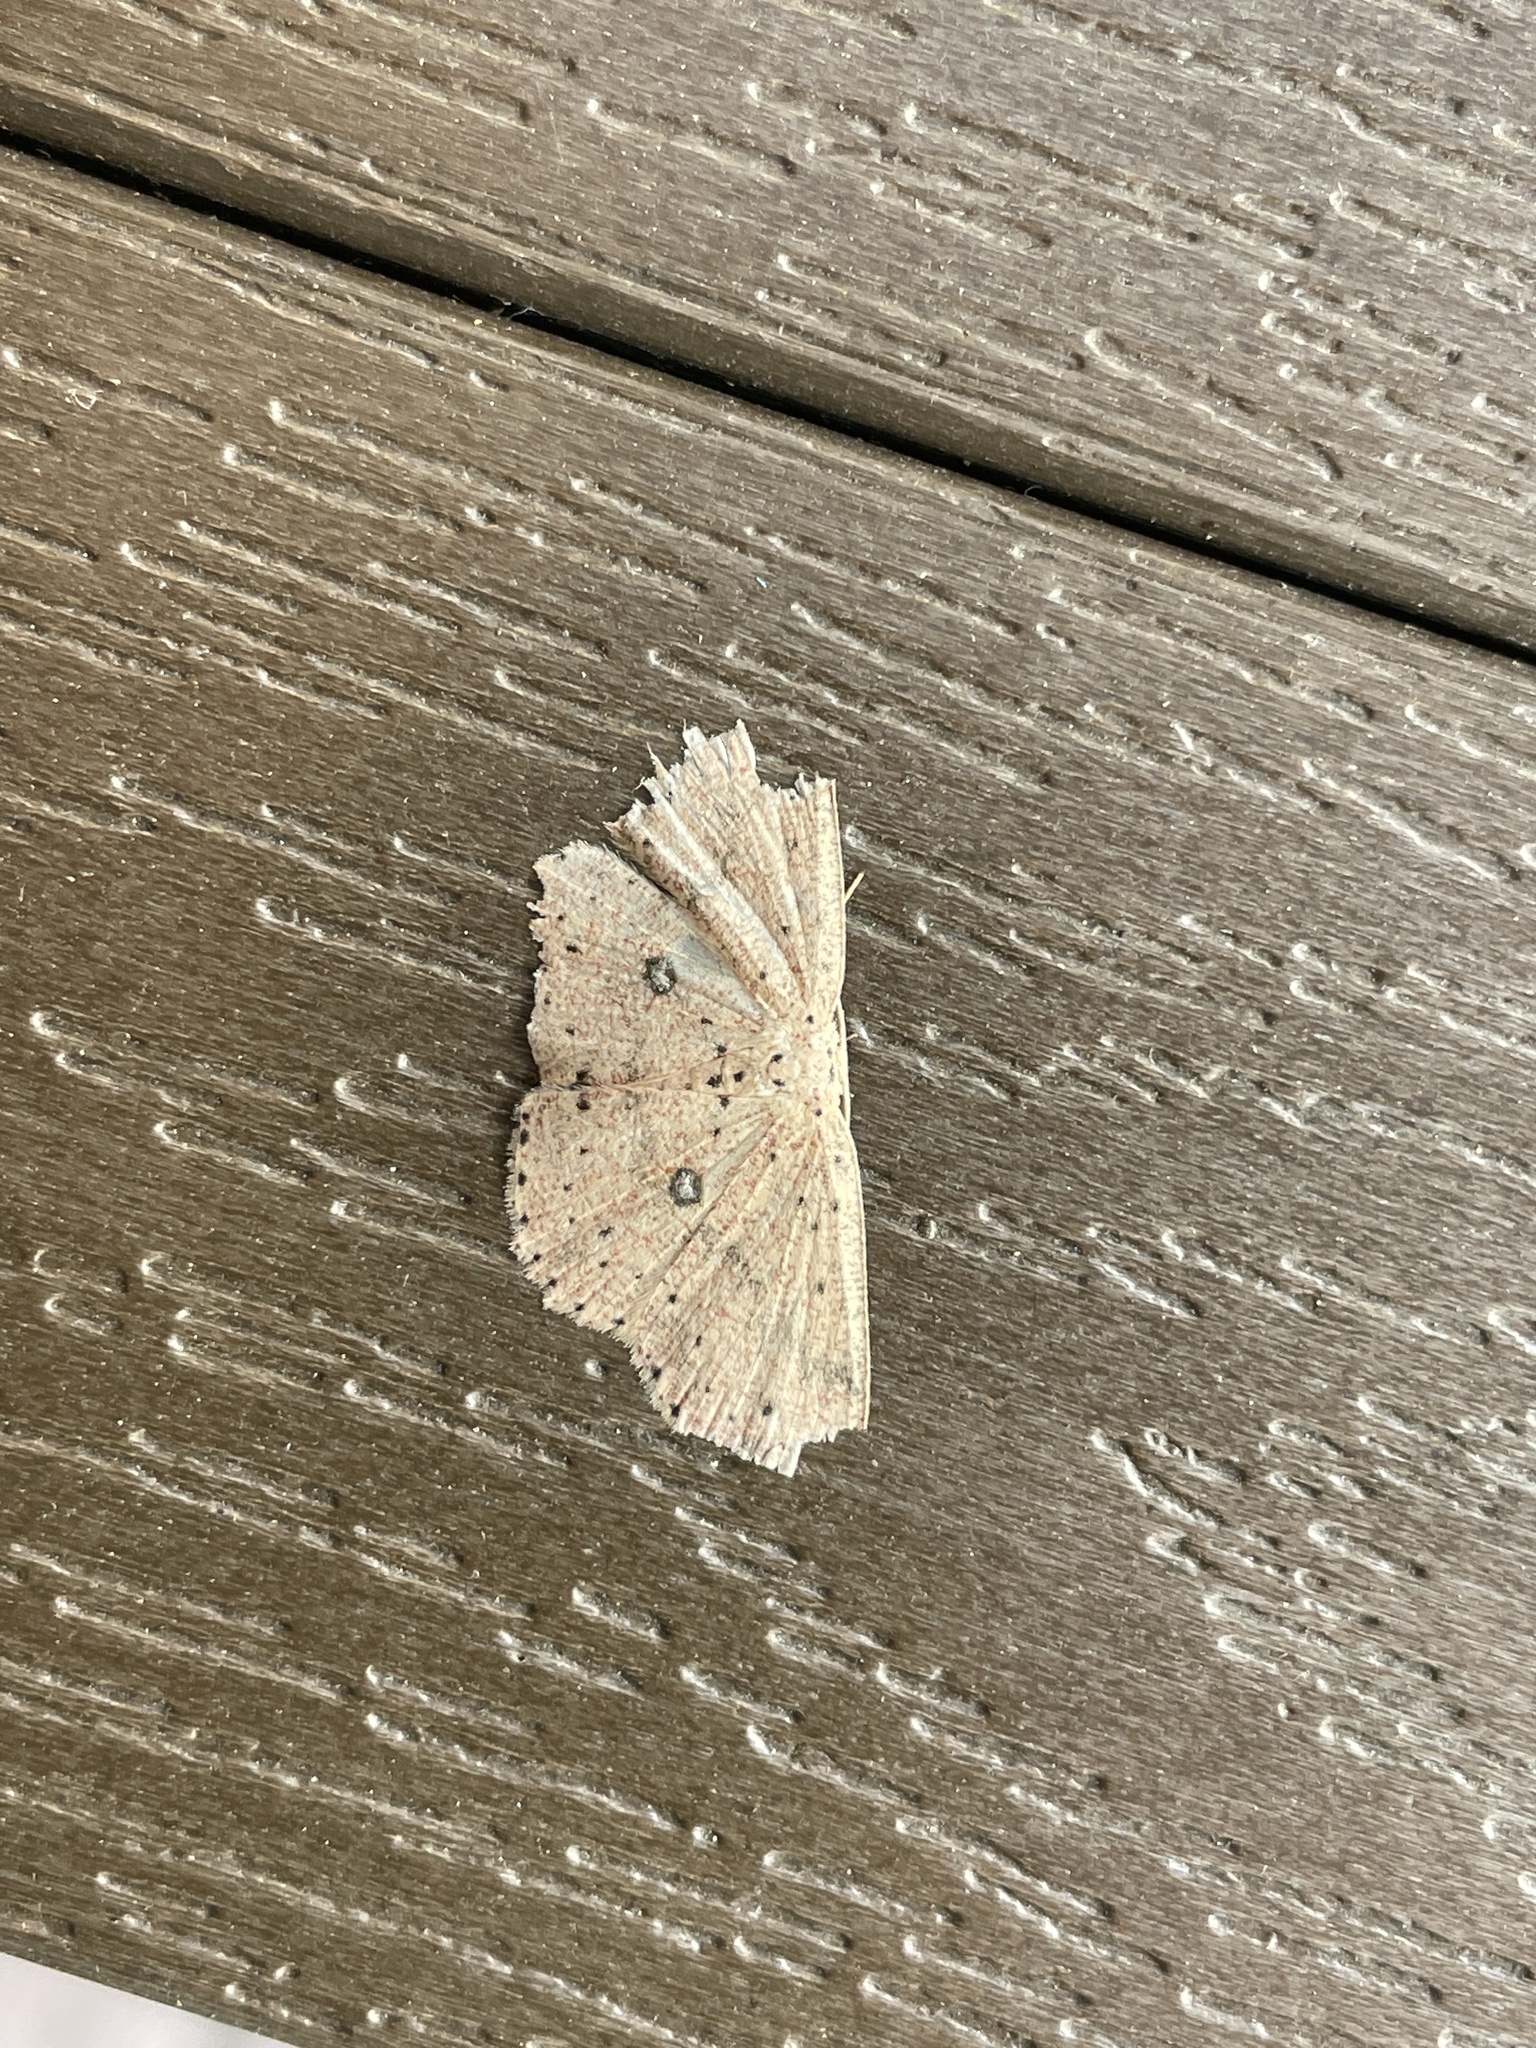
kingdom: Animalia
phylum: Arthropoda
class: Insecta
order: Lepidoptera
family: Geometridae
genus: Perixera
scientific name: Perixera decretarioides
